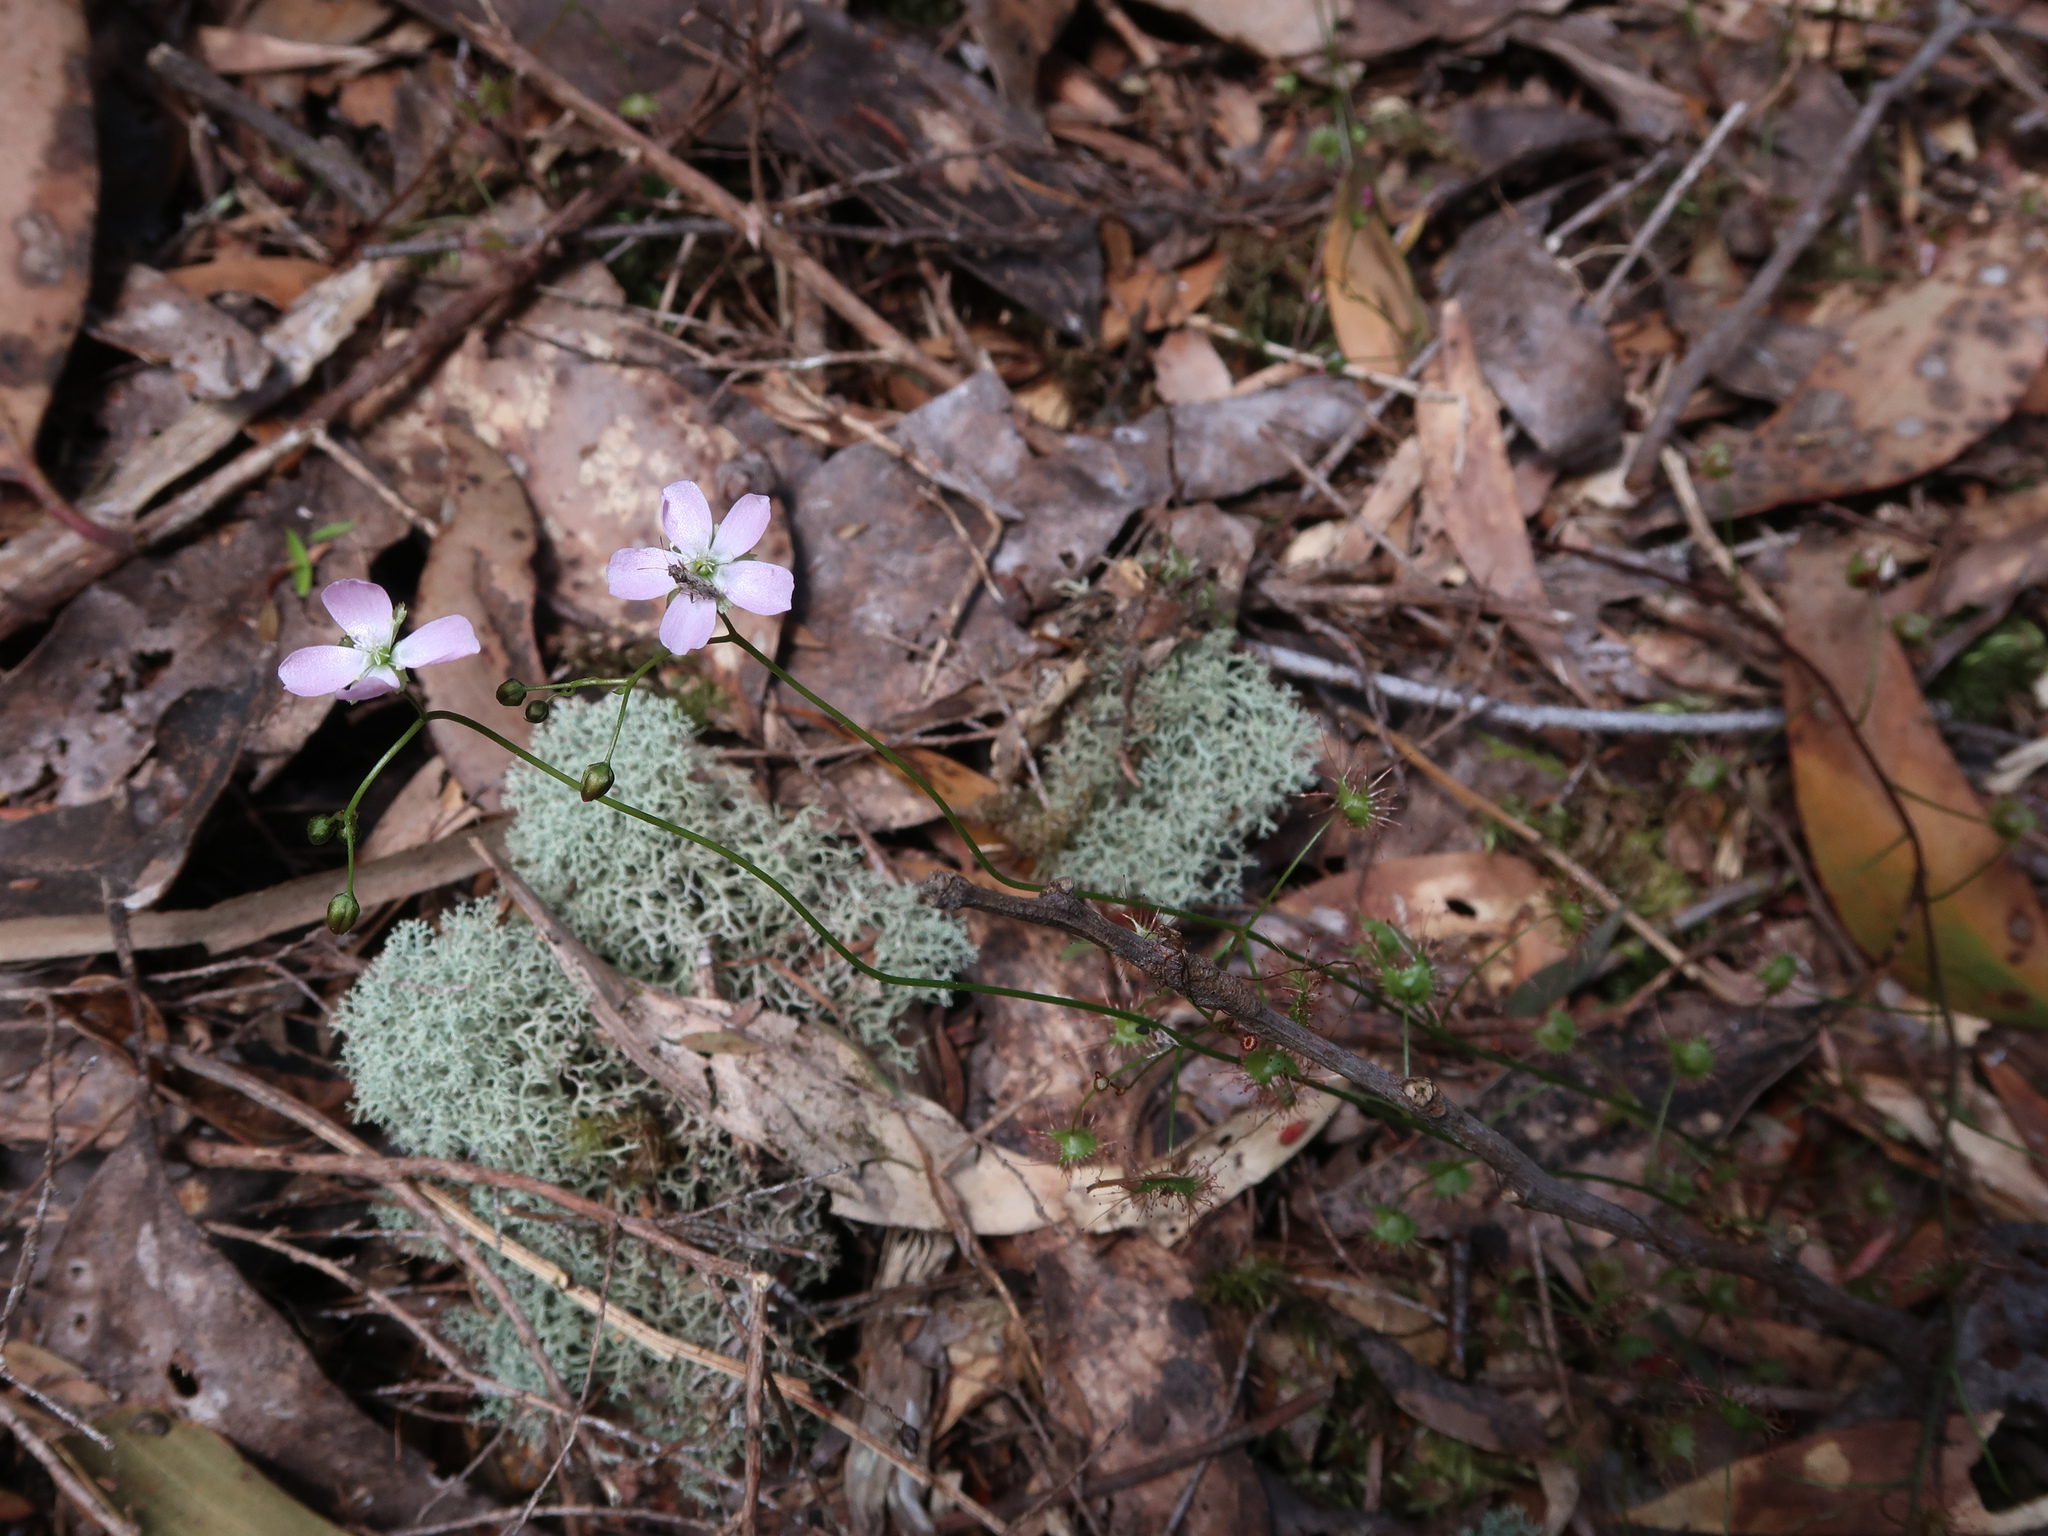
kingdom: Plantae
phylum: Tracheophyta
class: Magnoliopsida
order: Caryophyllales
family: Droseraceae
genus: Drosera
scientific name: Drosera peltata
